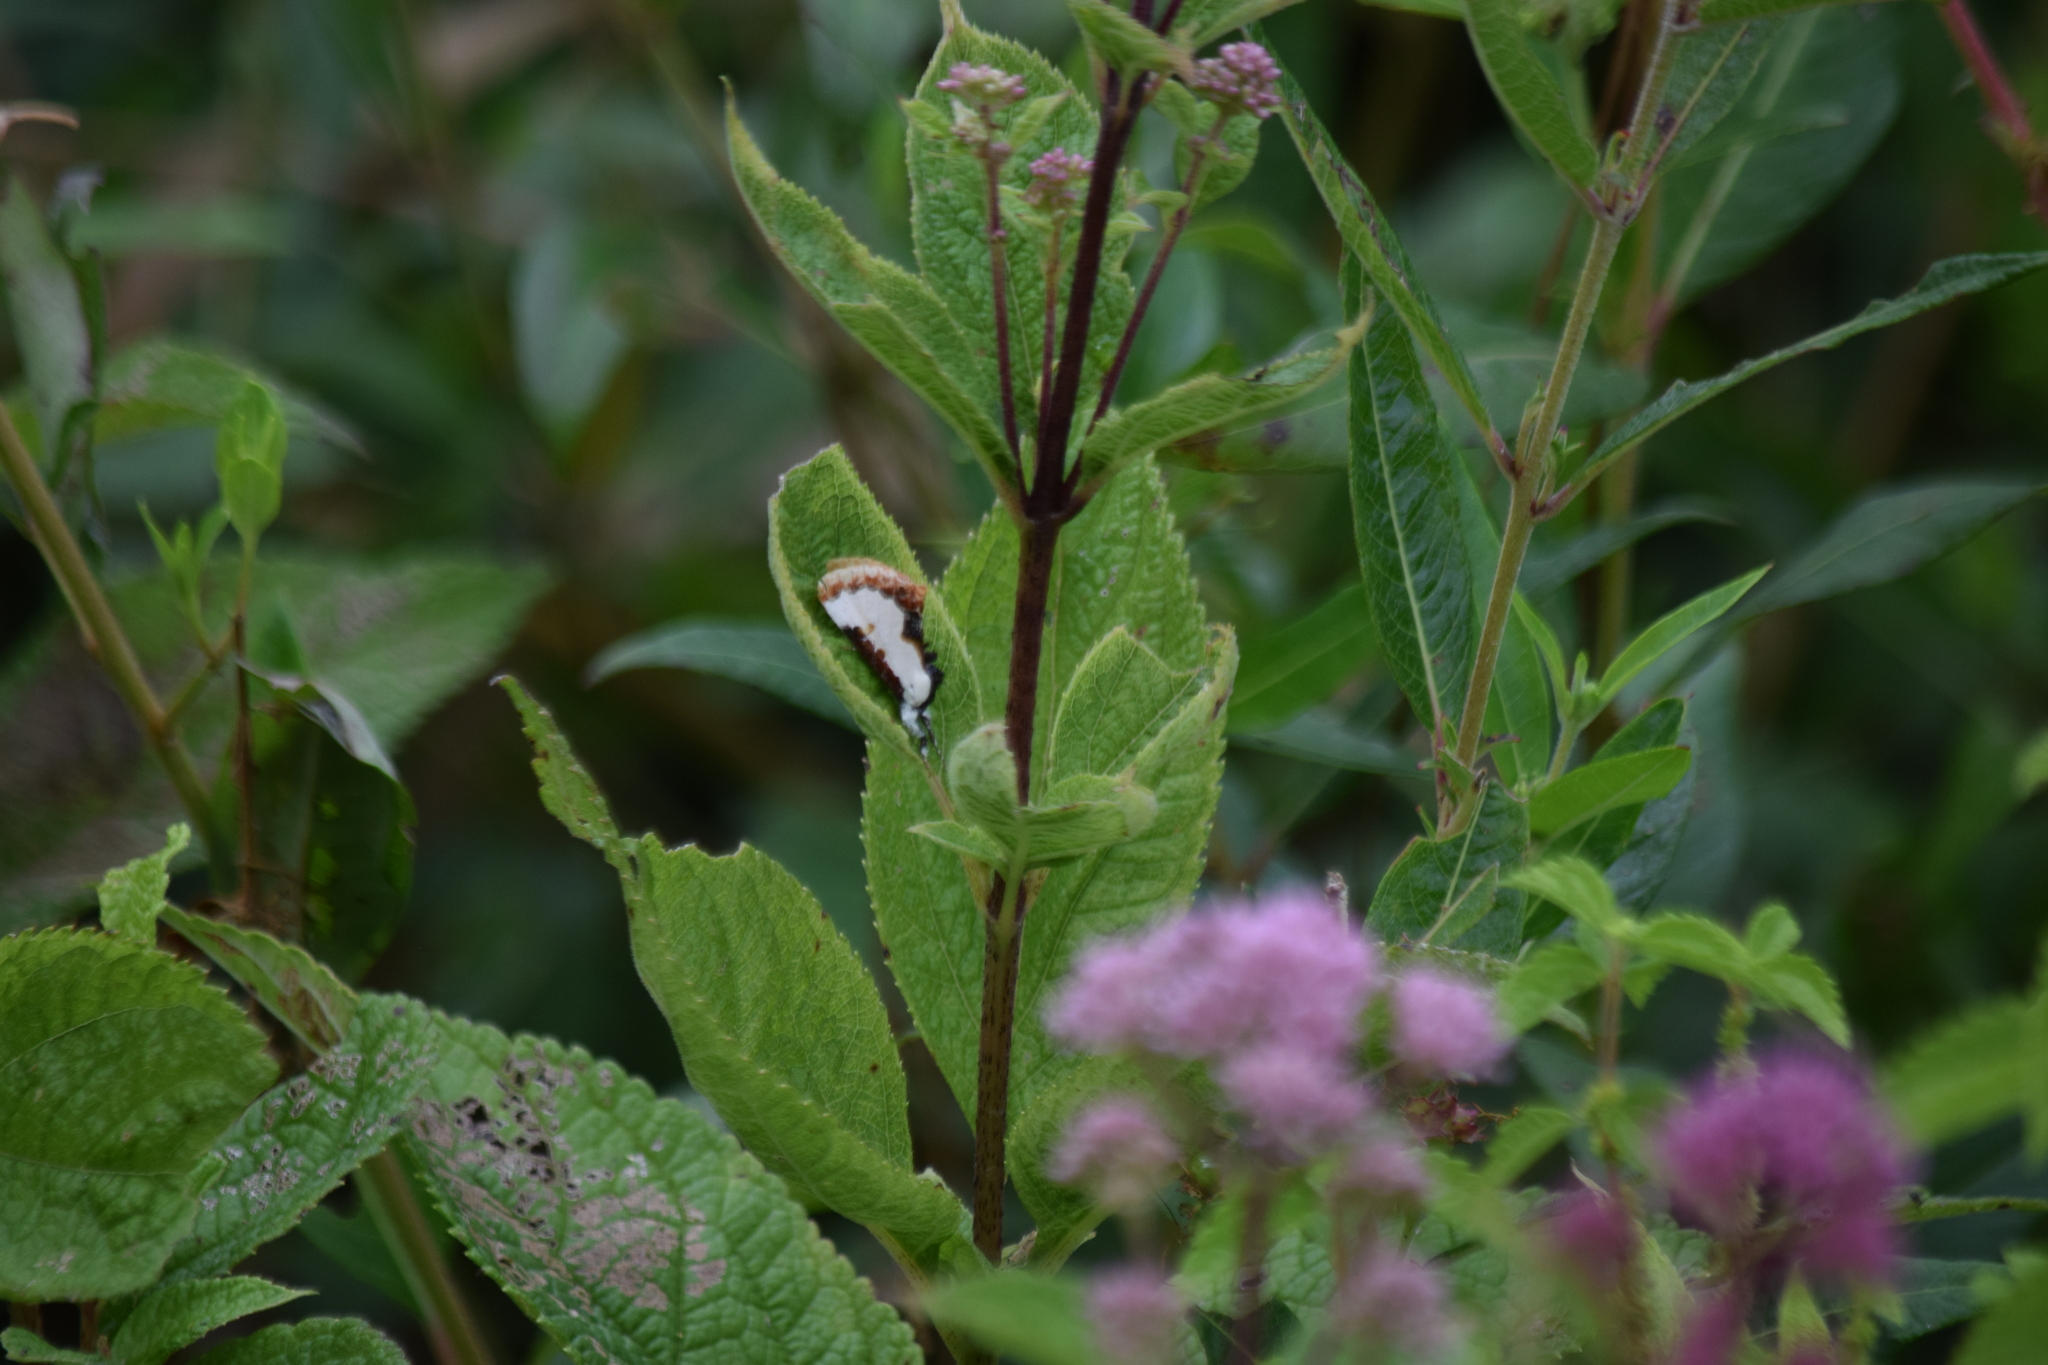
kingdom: Animalia
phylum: Arthropoda
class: Insecta
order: Lepidoptera
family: Noctuidae
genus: Eudryas
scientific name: Eudryas unio
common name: Pearly wood-nymph
